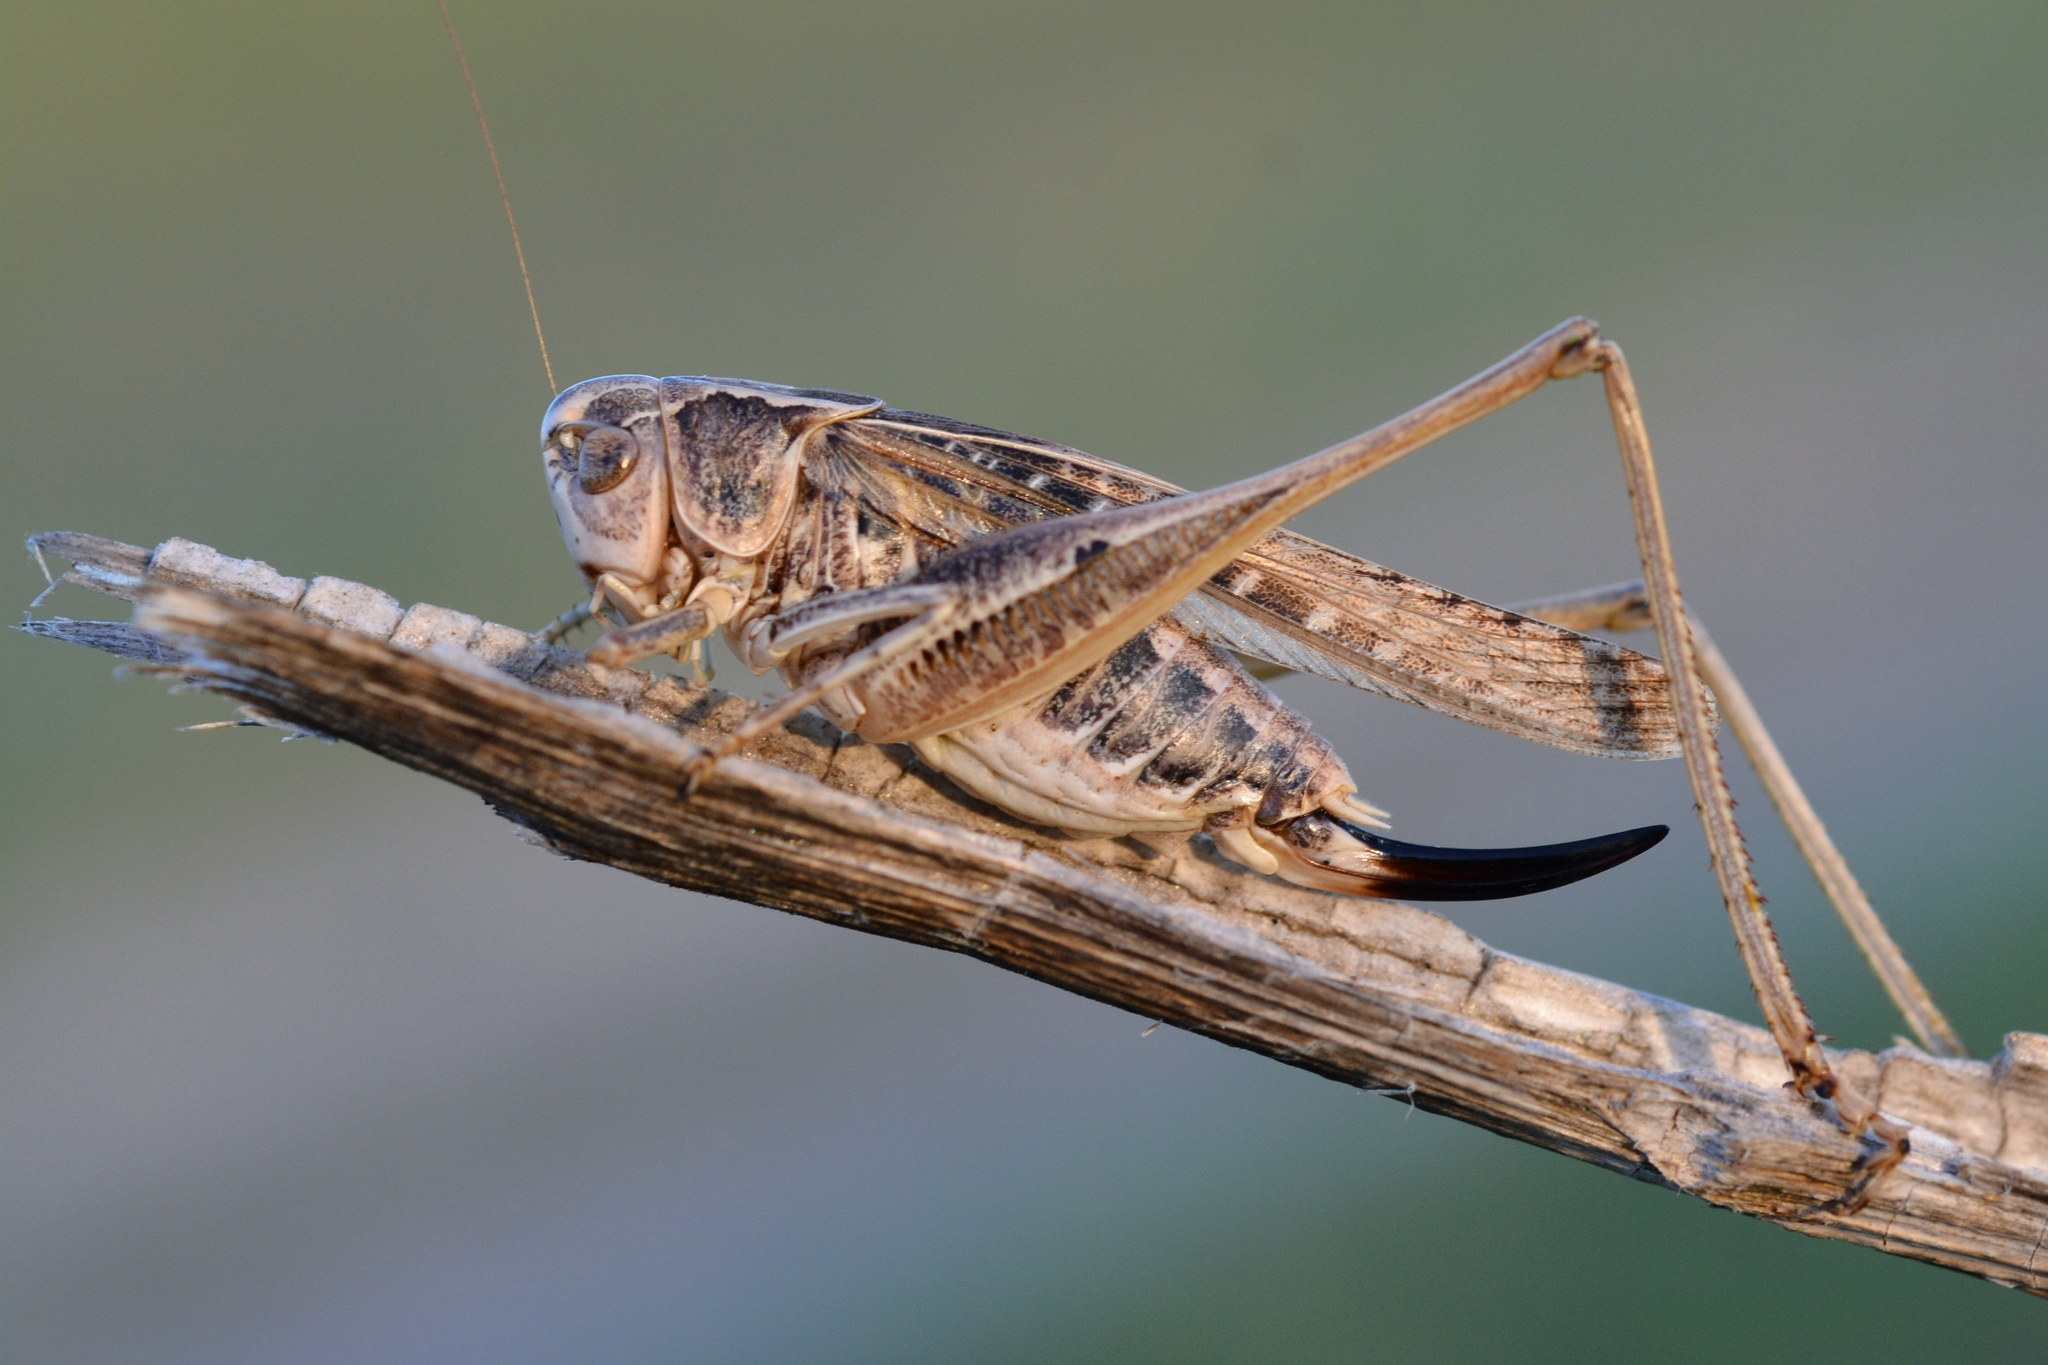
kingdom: Animalia
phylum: Arthropoda
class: Insecta
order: Orthoptera
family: Tettigoniidae
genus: Platycleis
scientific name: Platycleis affinis
